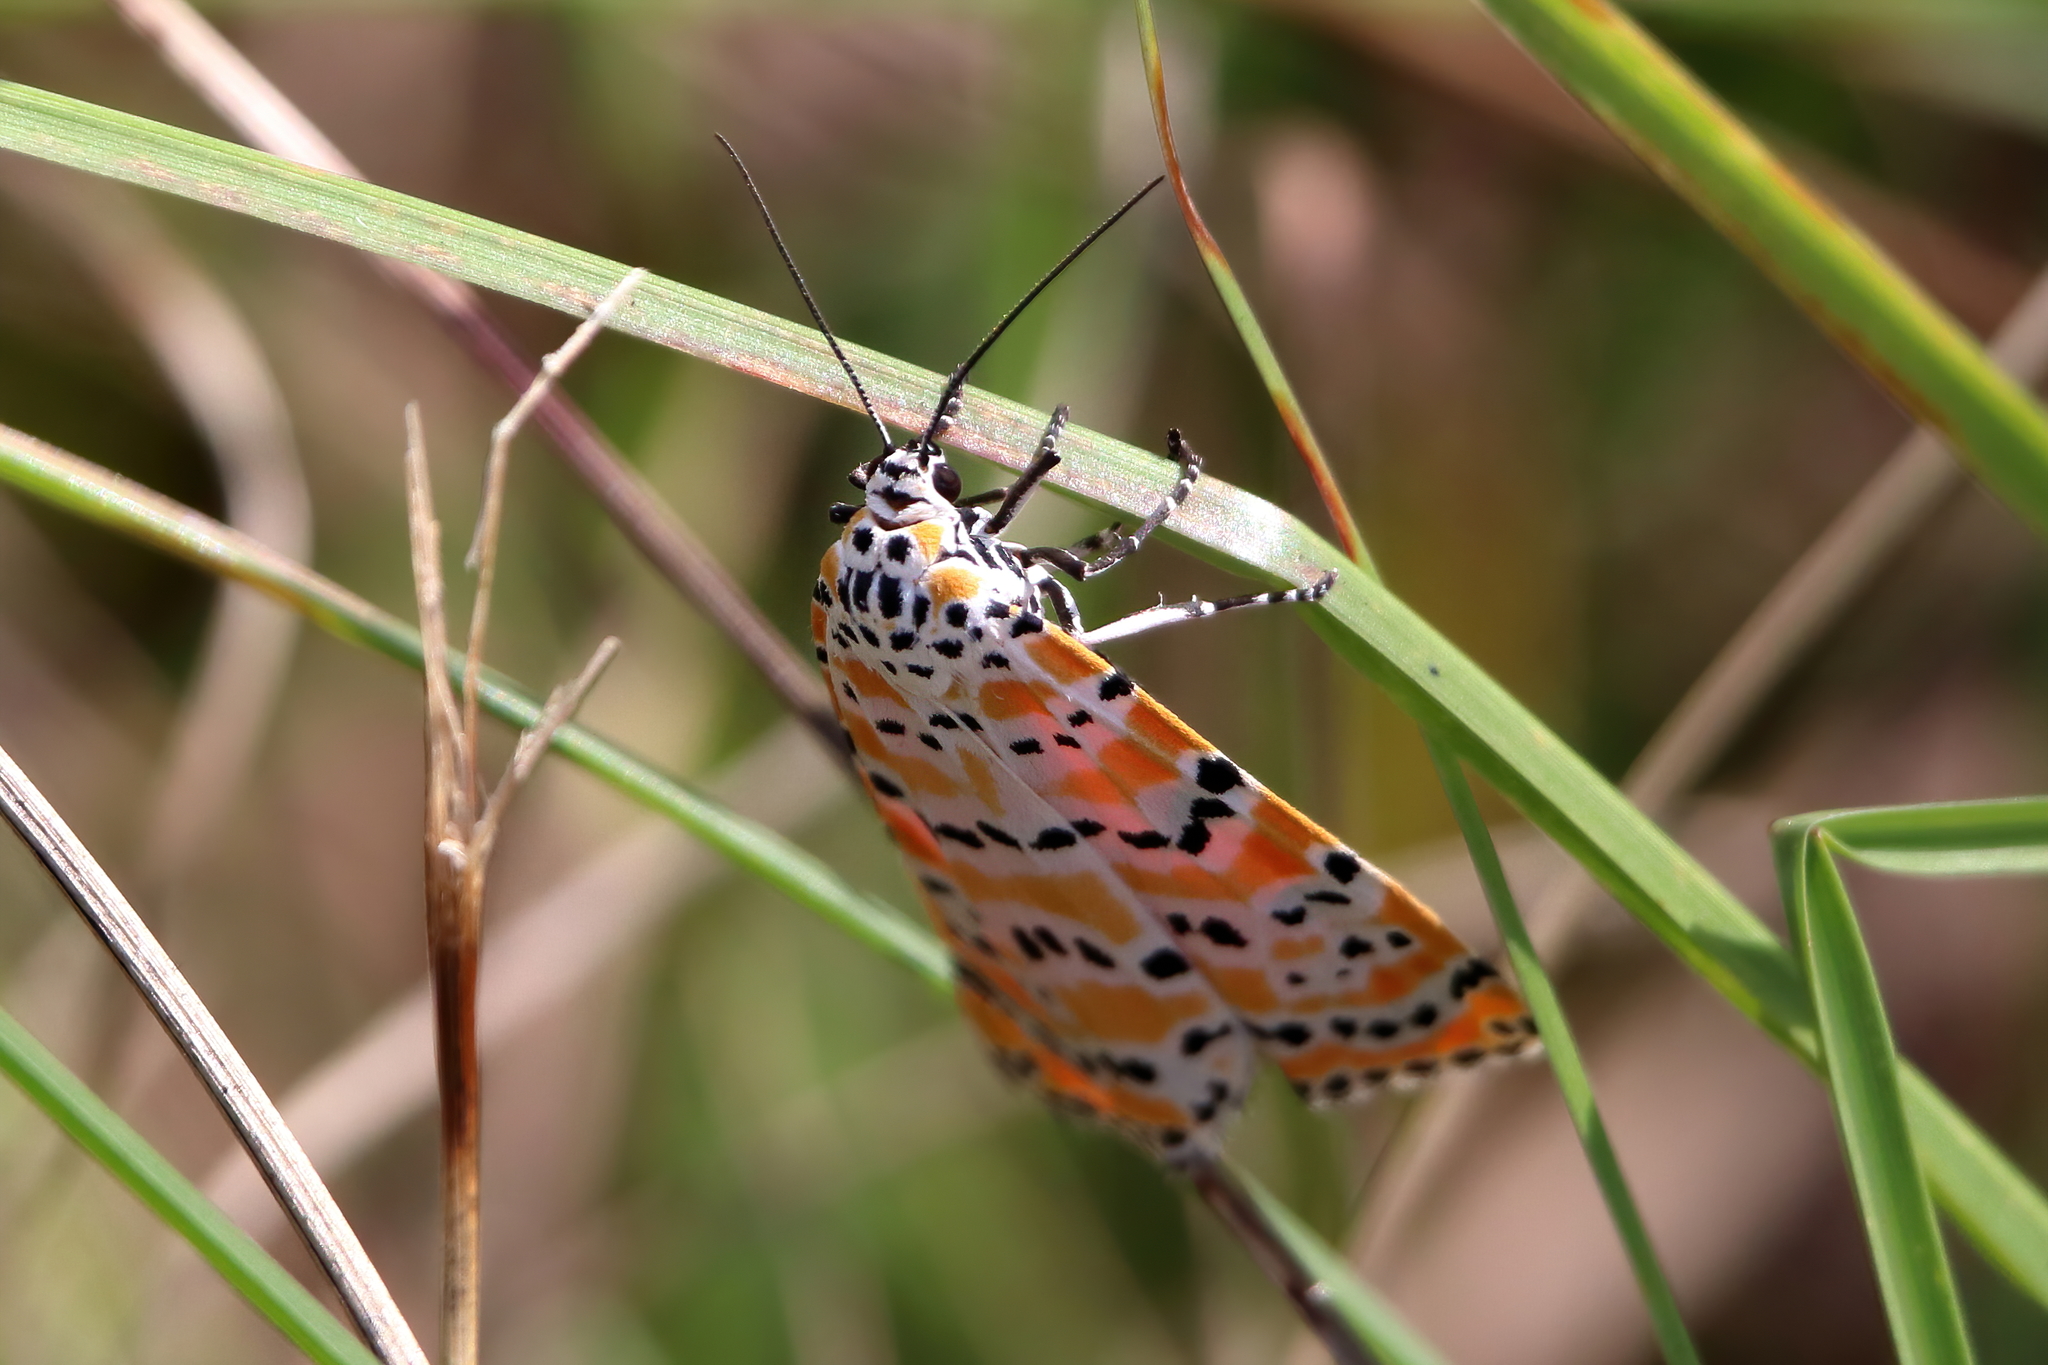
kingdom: Animalia
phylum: Arthropoda
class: Insecta
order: Lepidoptera
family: Erebidae
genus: Utetheisa
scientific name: Utetheisa ornatrix
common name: Beautiful utetheisa
